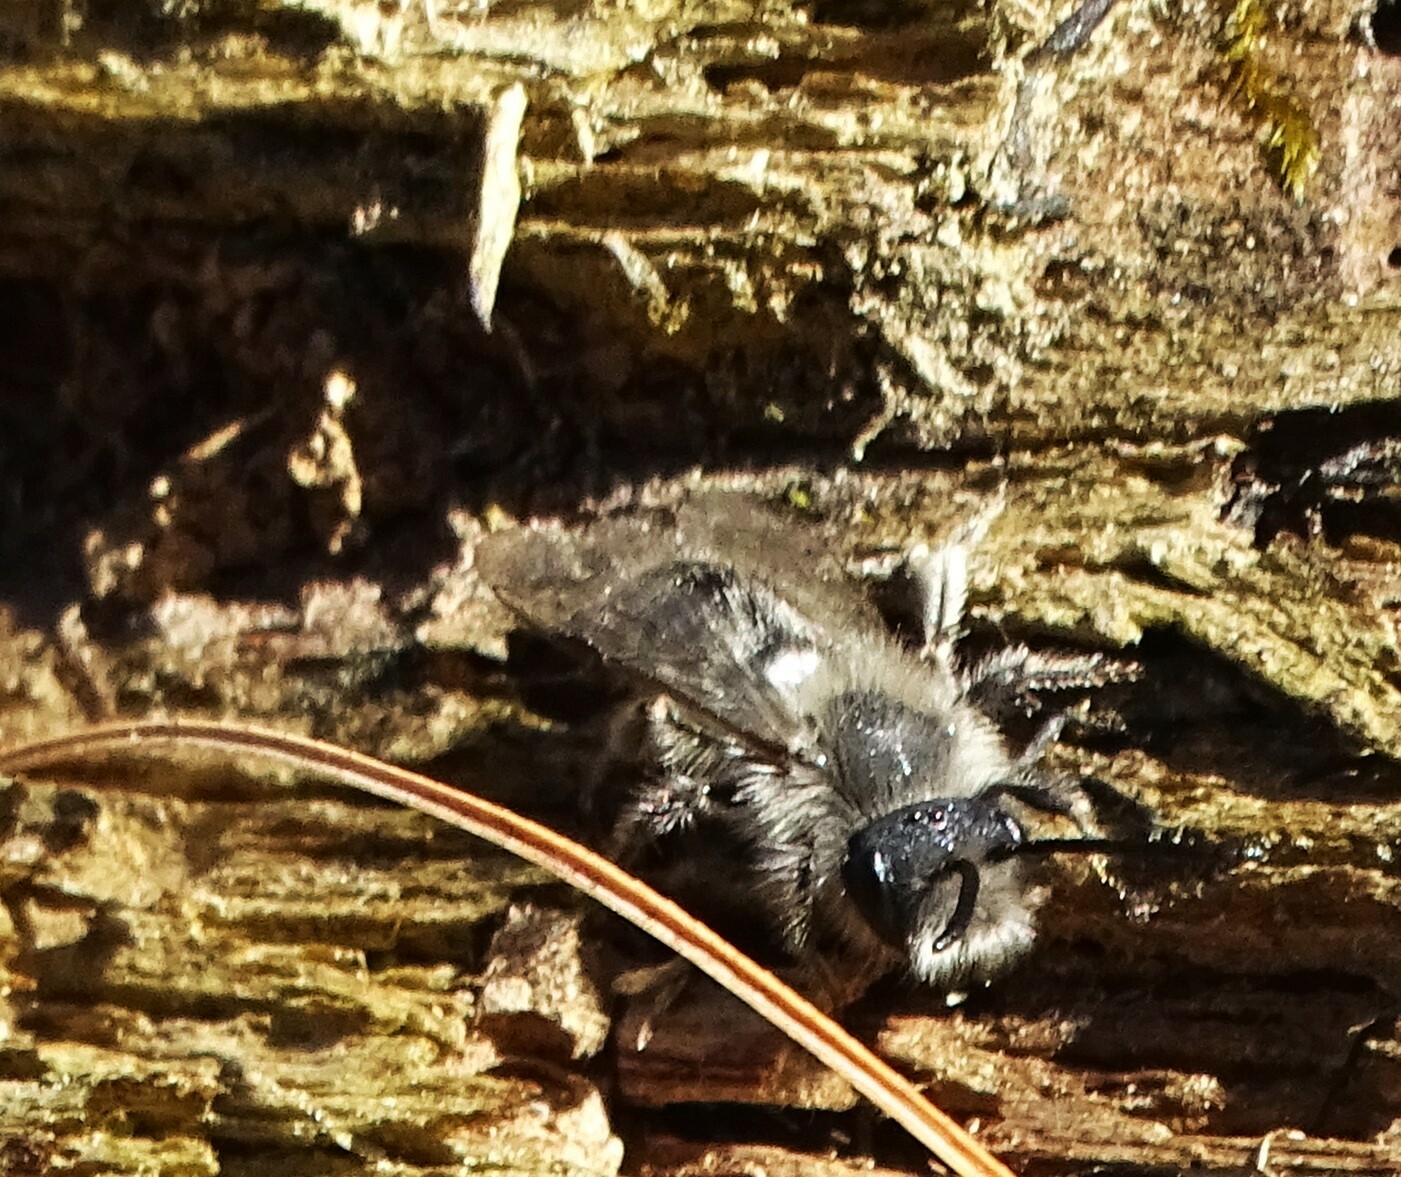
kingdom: Animalia
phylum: Arthropoda
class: Insecta
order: Hymenoptera
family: Andrenidae
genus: Andrena
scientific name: Andrena frigida
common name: Frigid mining bee
